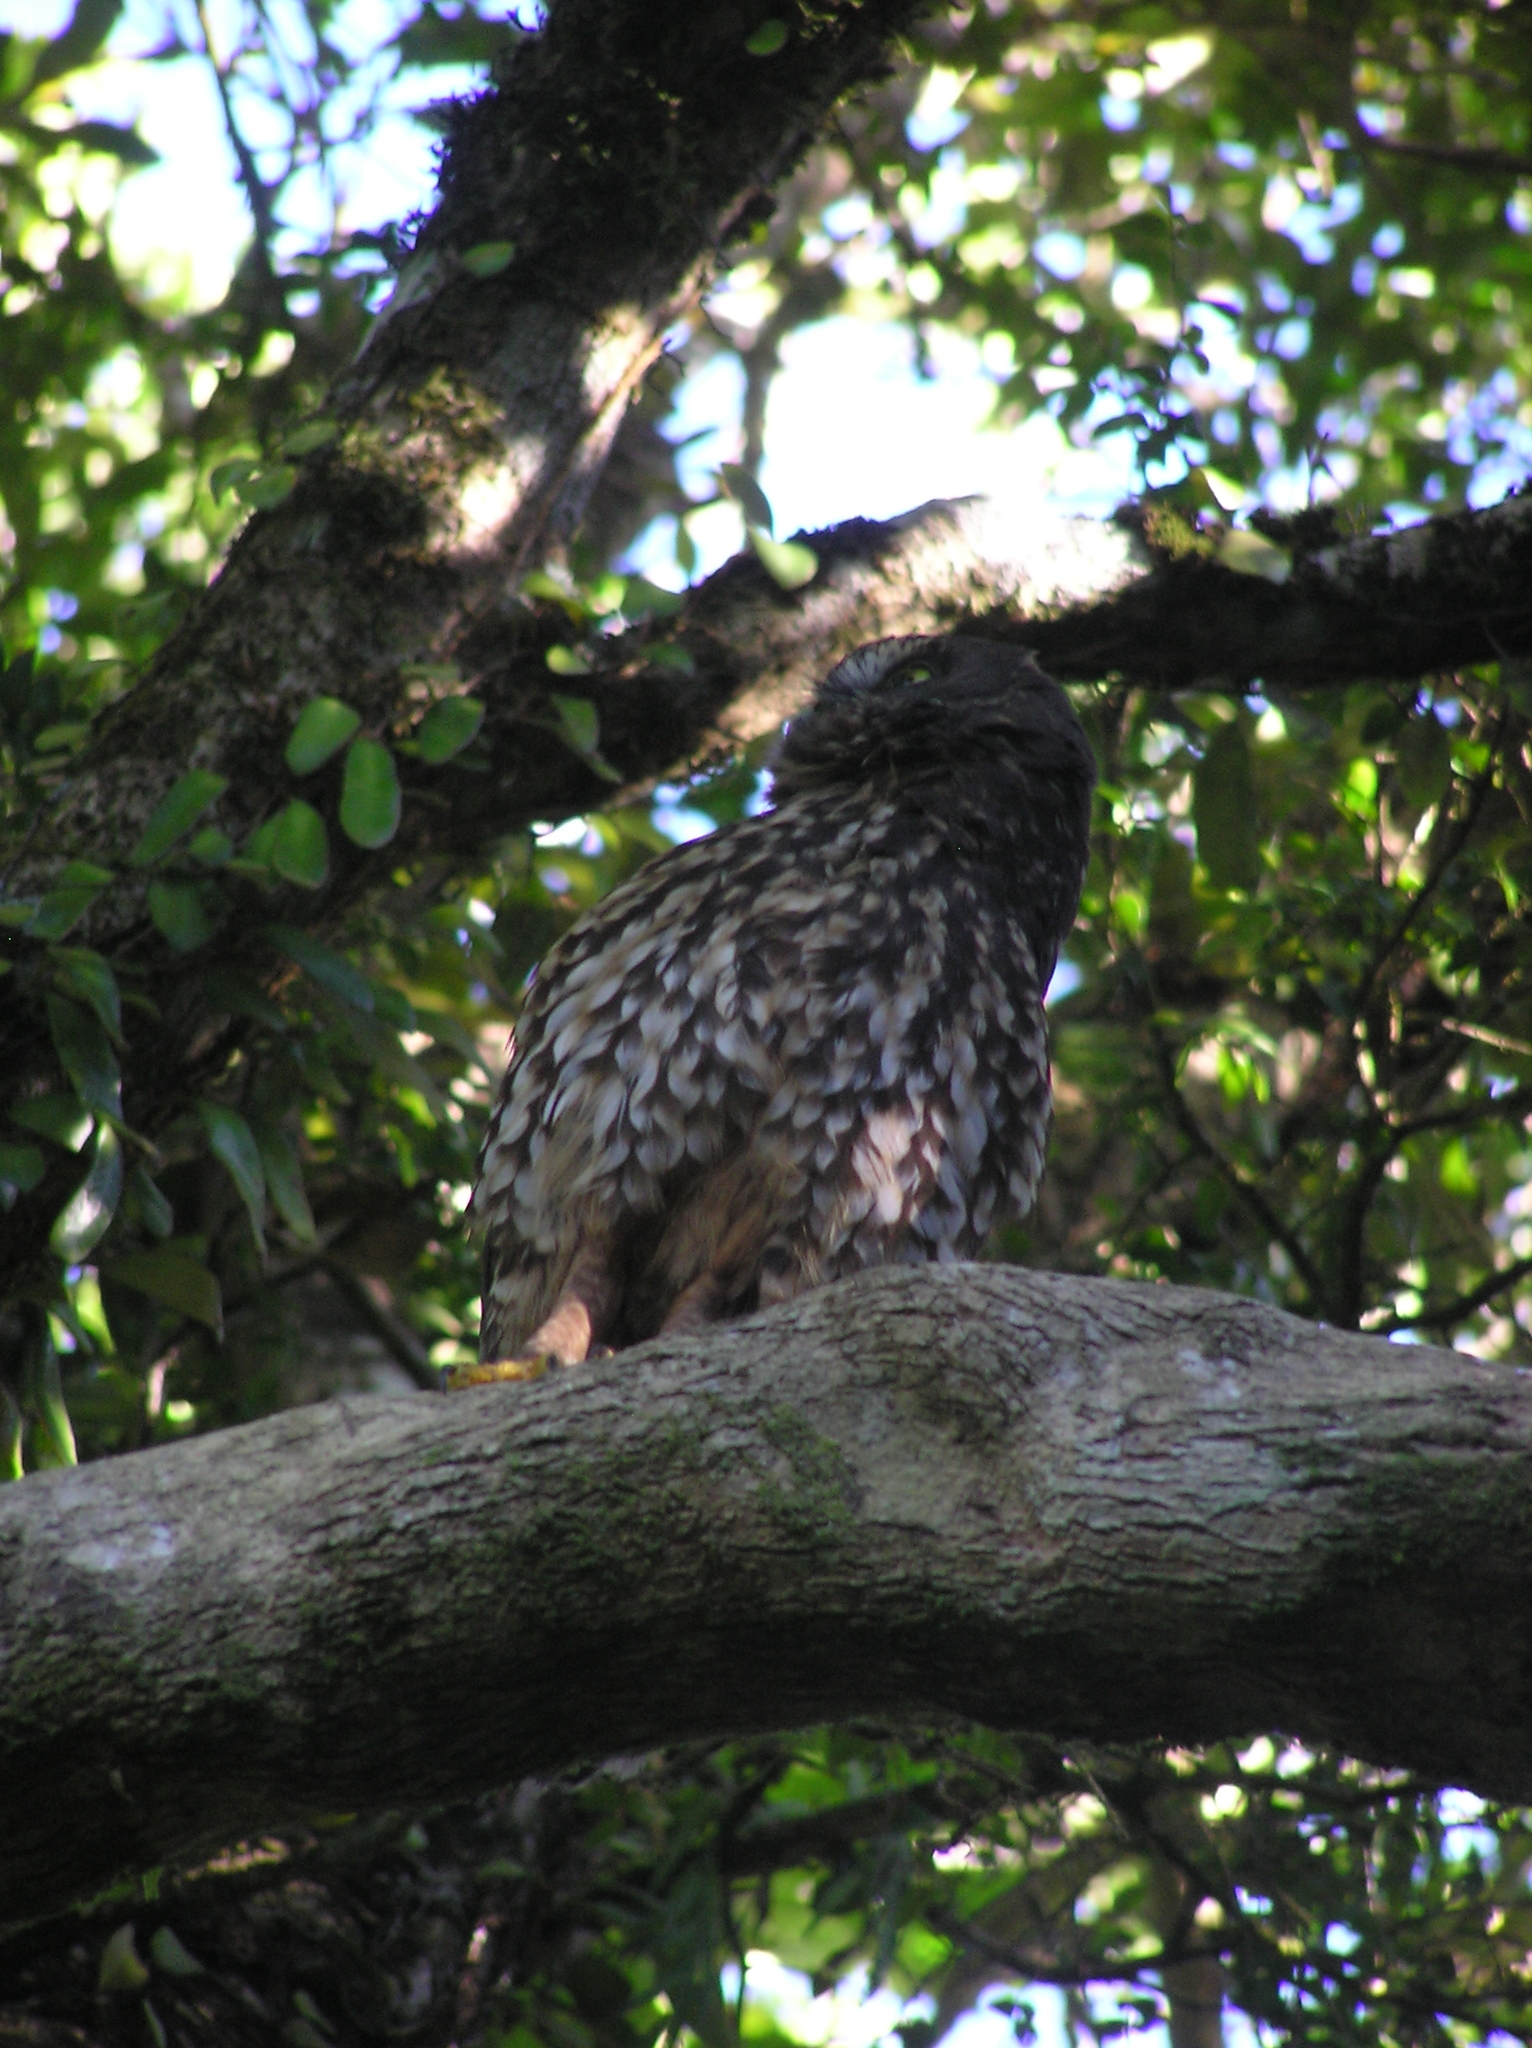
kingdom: Animalia
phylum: Chordata
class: Aves
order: Strigiformes
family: Strigidae
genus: Ninox
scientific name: Ninox novaeseelandiae
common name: Morepork
